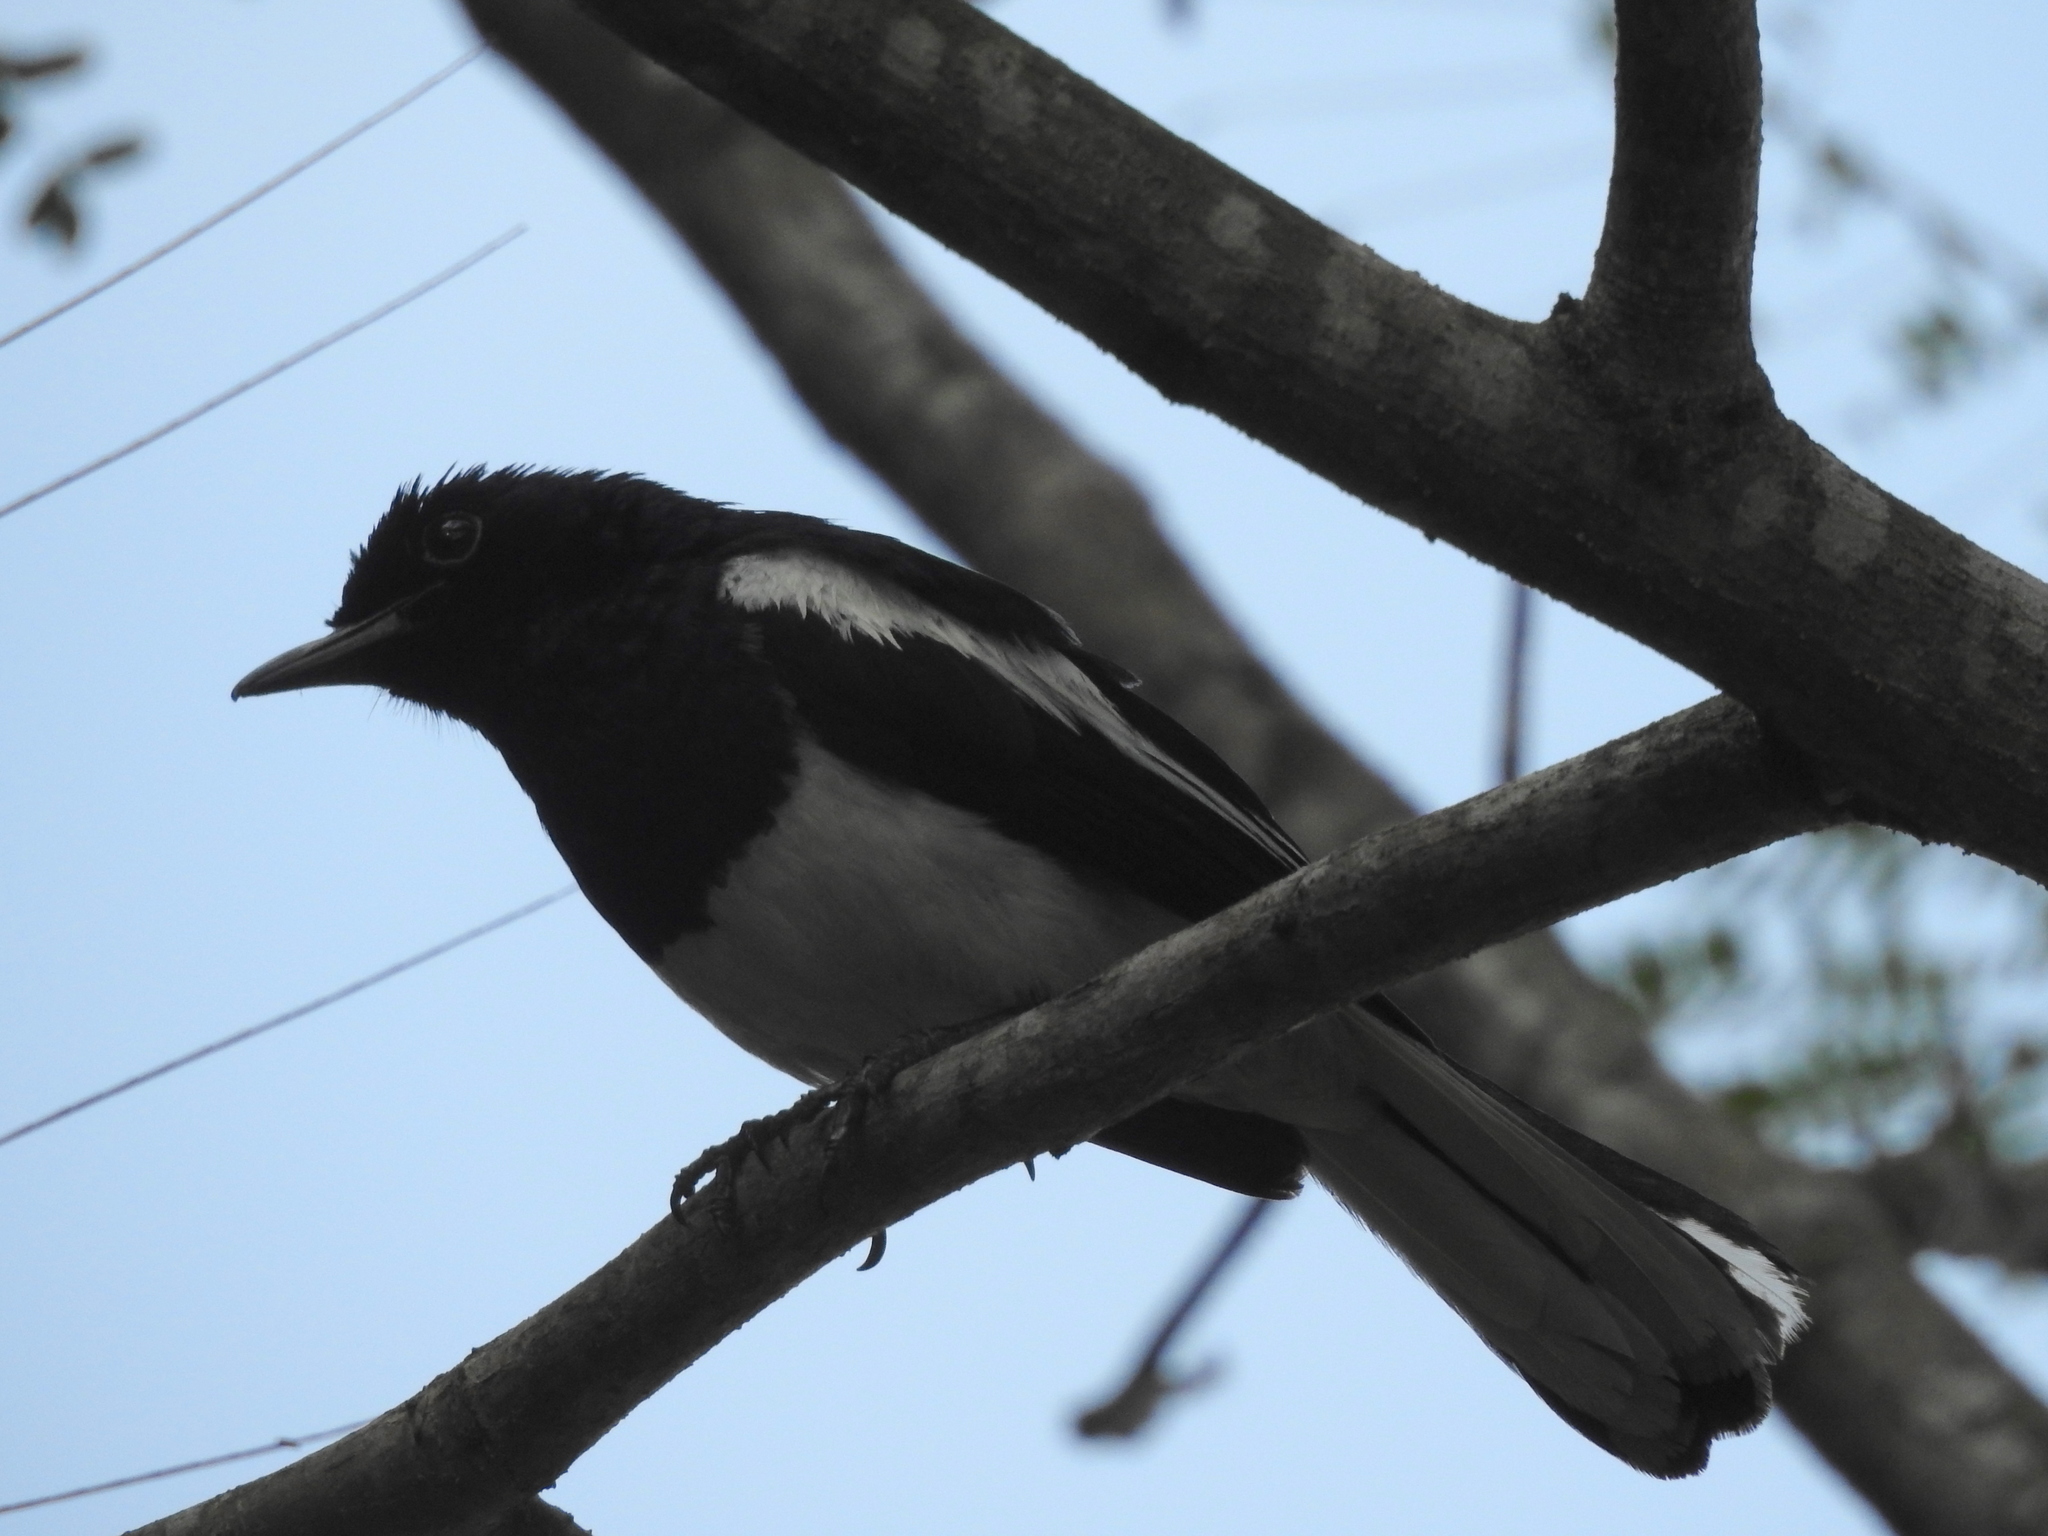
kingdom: Animalia
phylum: Chordata
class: Aves
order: Passeriformes
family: Muscicapidae
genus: Copsychus
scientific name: Copsychus saularis
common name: Oriental magpie-robin
